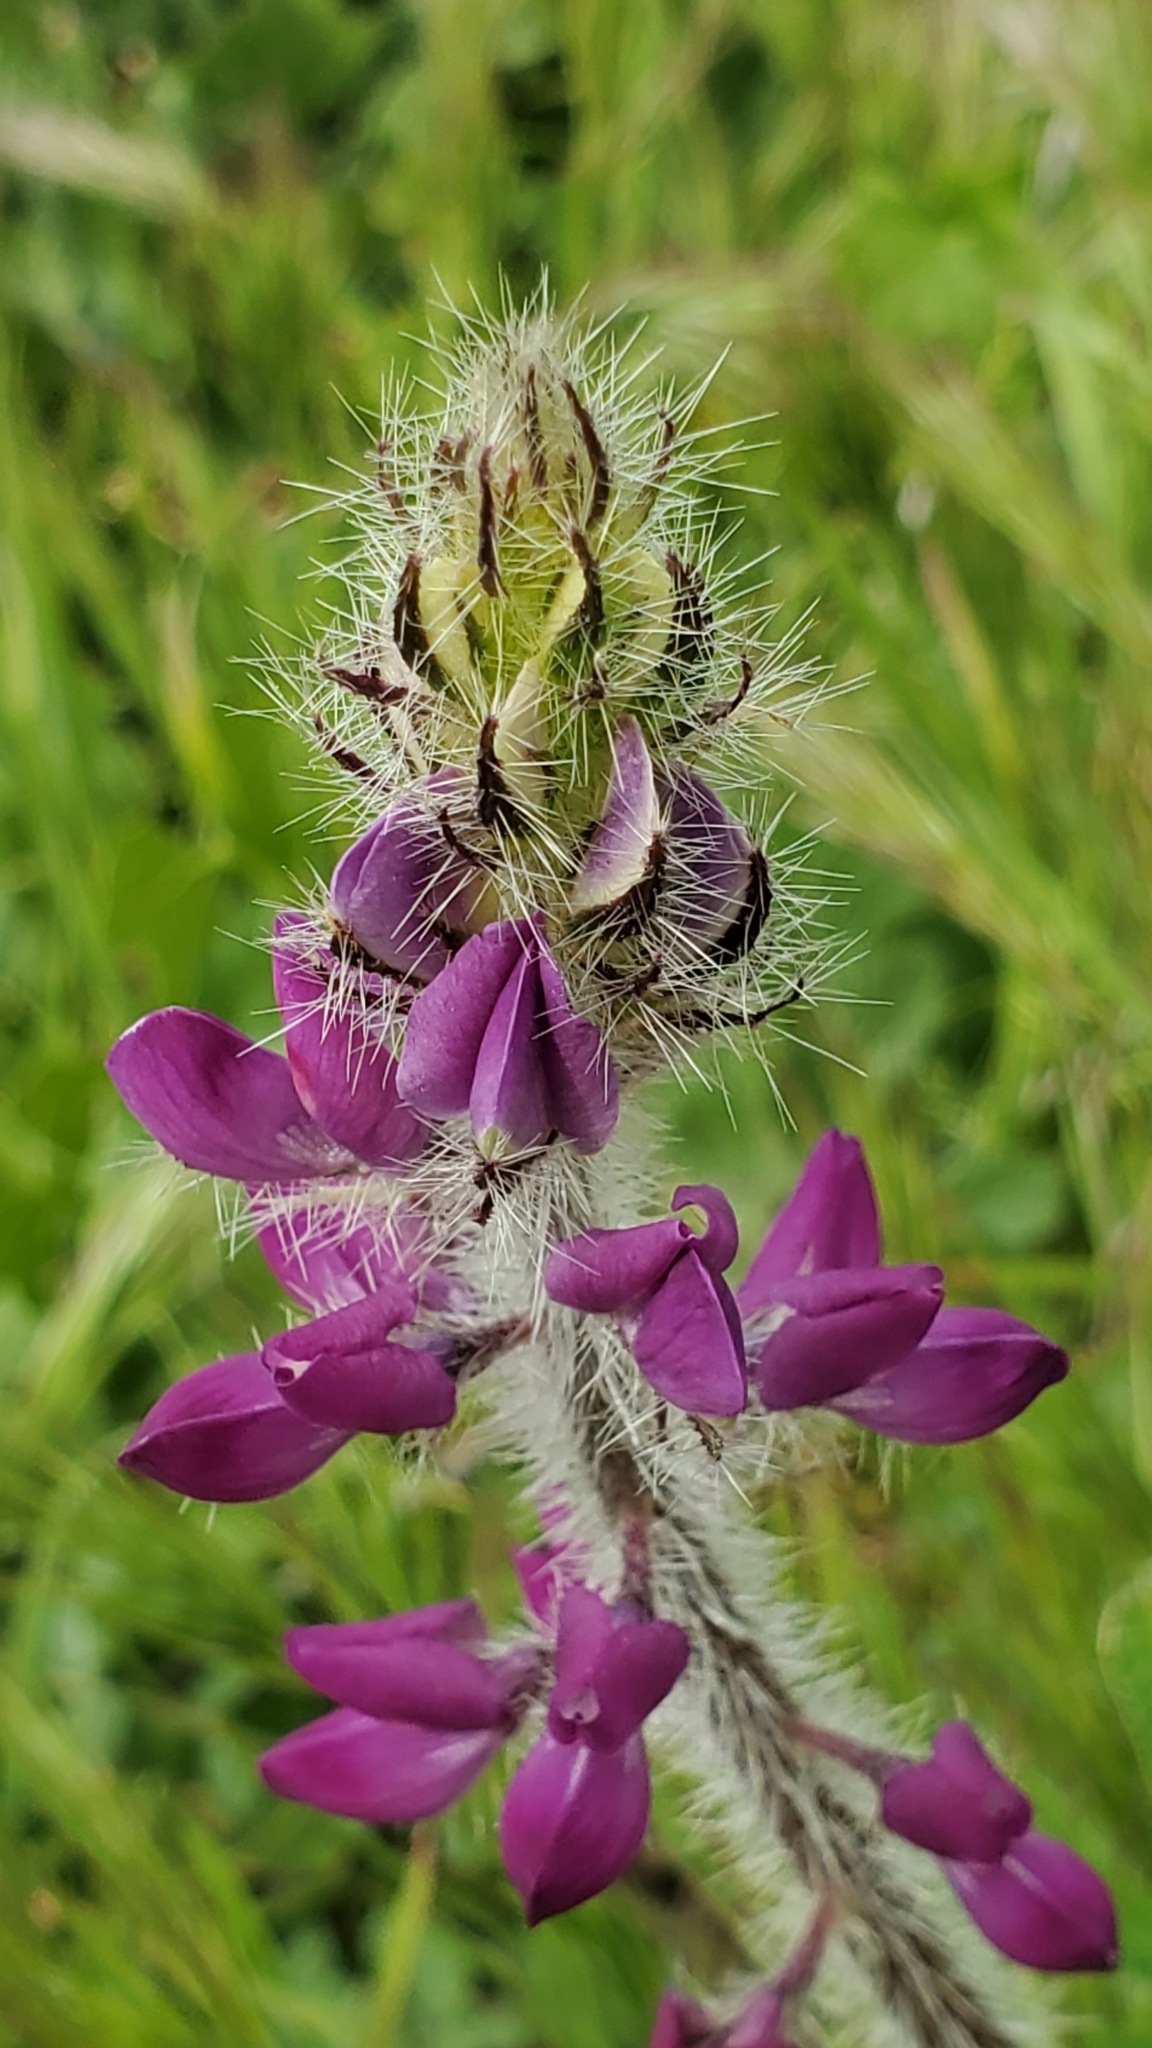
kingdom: Plantae
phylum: Tracheophyta
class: Magnoliopsida
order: Fabales
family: Fabaceae
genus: Lupinus
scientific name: Lupinus hirsutissimus
